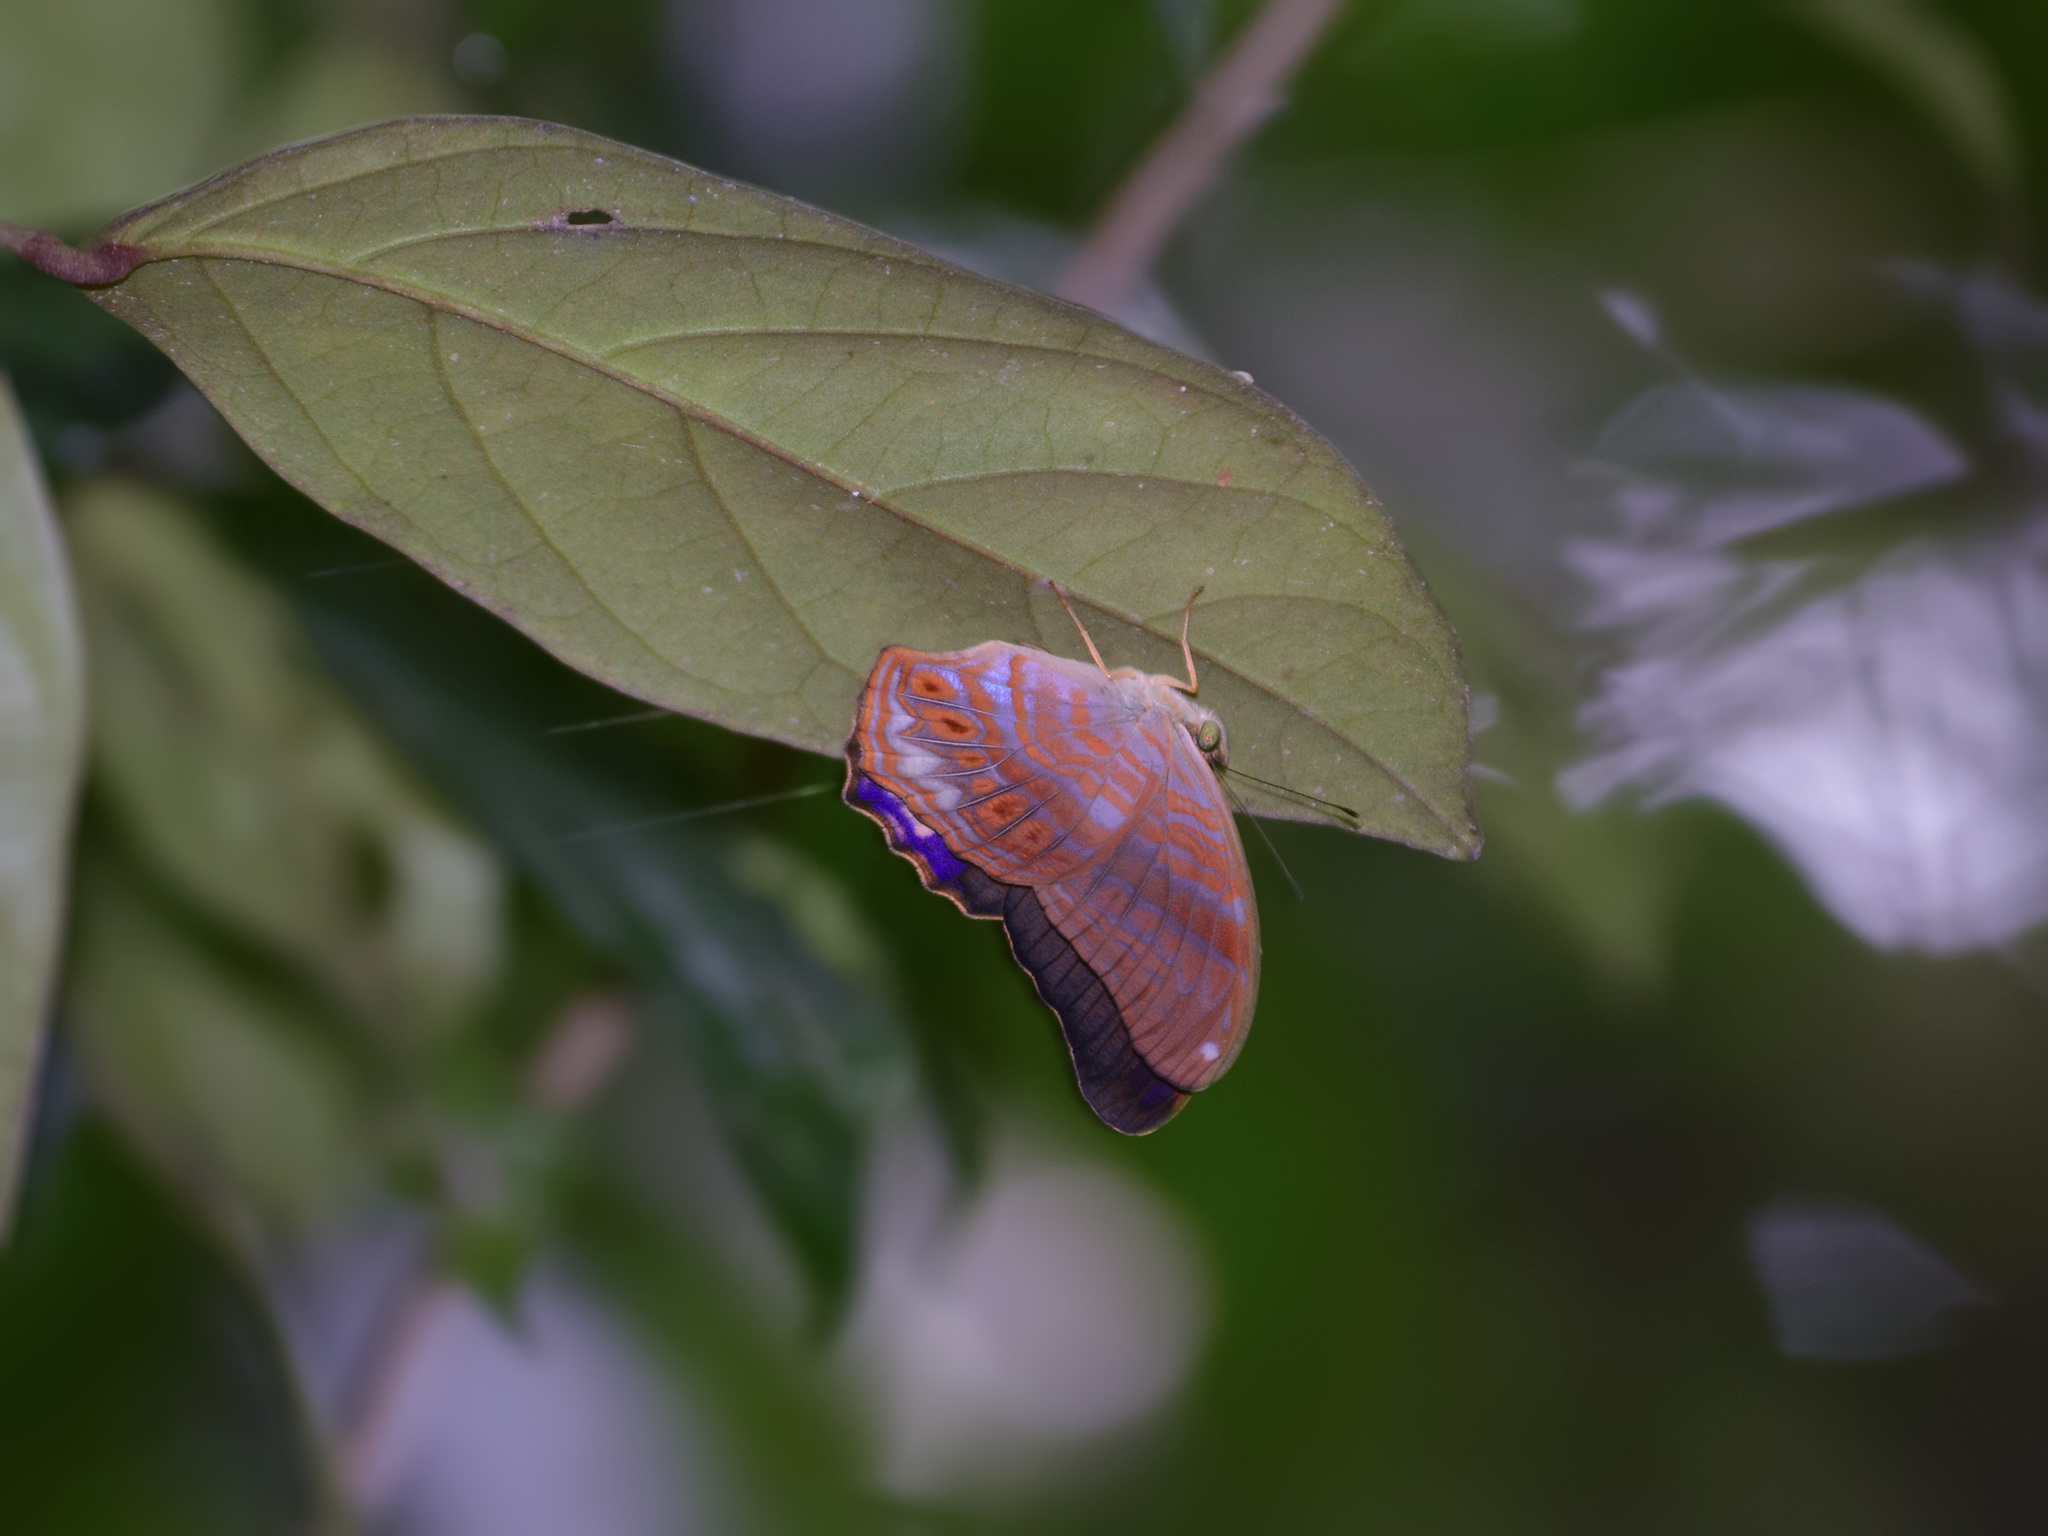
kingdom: Animalia
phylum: Arthropoda
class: Insecta
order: Lepidoptera
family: Nymphalidae
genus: Terinos
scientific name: Terinos terpander
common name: Royal assyrian
